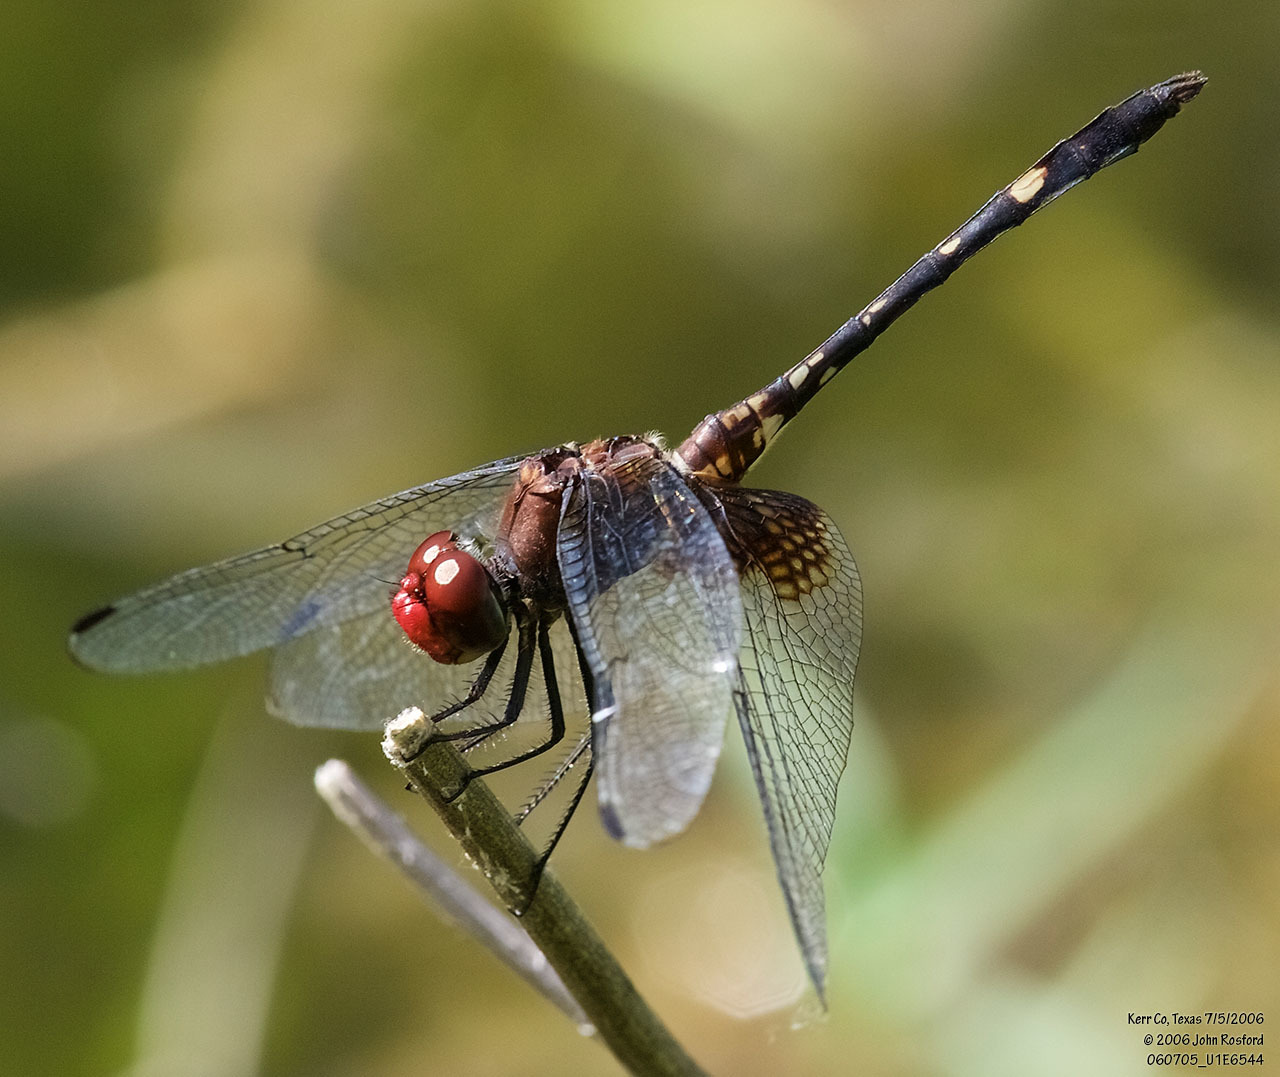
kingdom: Animalia
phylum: Arthropoda
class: Insecta
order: Odonata
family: Libellulidae
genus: Dythemis
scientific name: Dythemis fugax
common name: Checkered setwing
